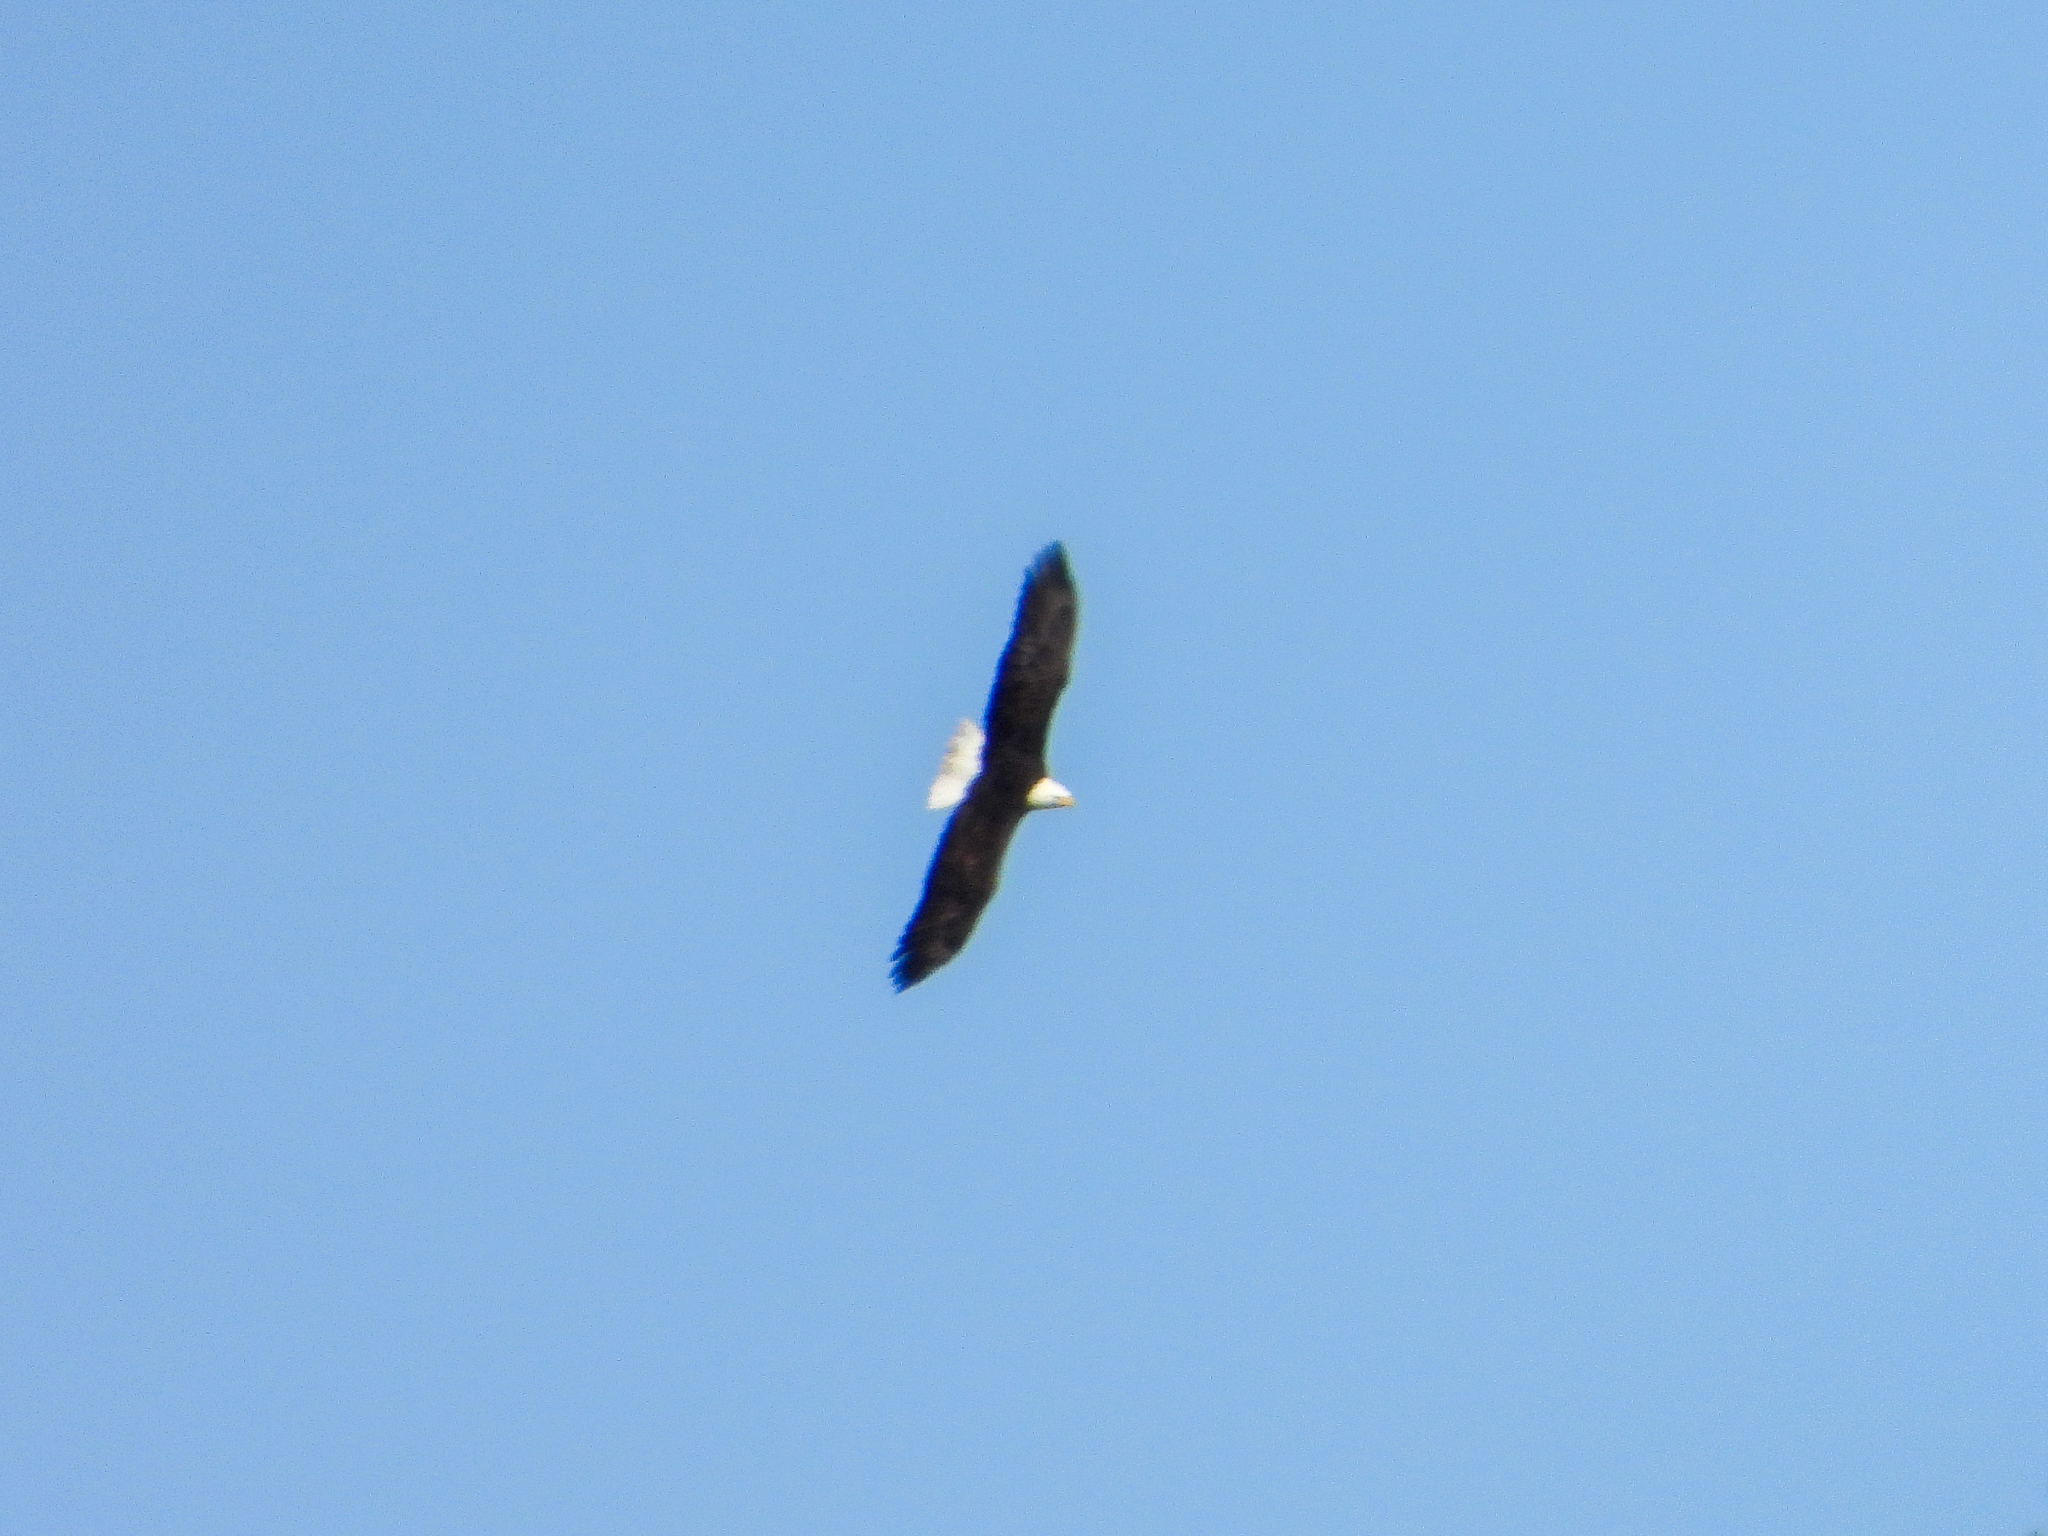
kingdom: Animalia
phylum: Chordata
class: Aves
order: Accipitriformes
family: Accipitridae
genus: Haliaeetus
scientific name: Haliaeetus leucocephalus
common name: Bald eagle
